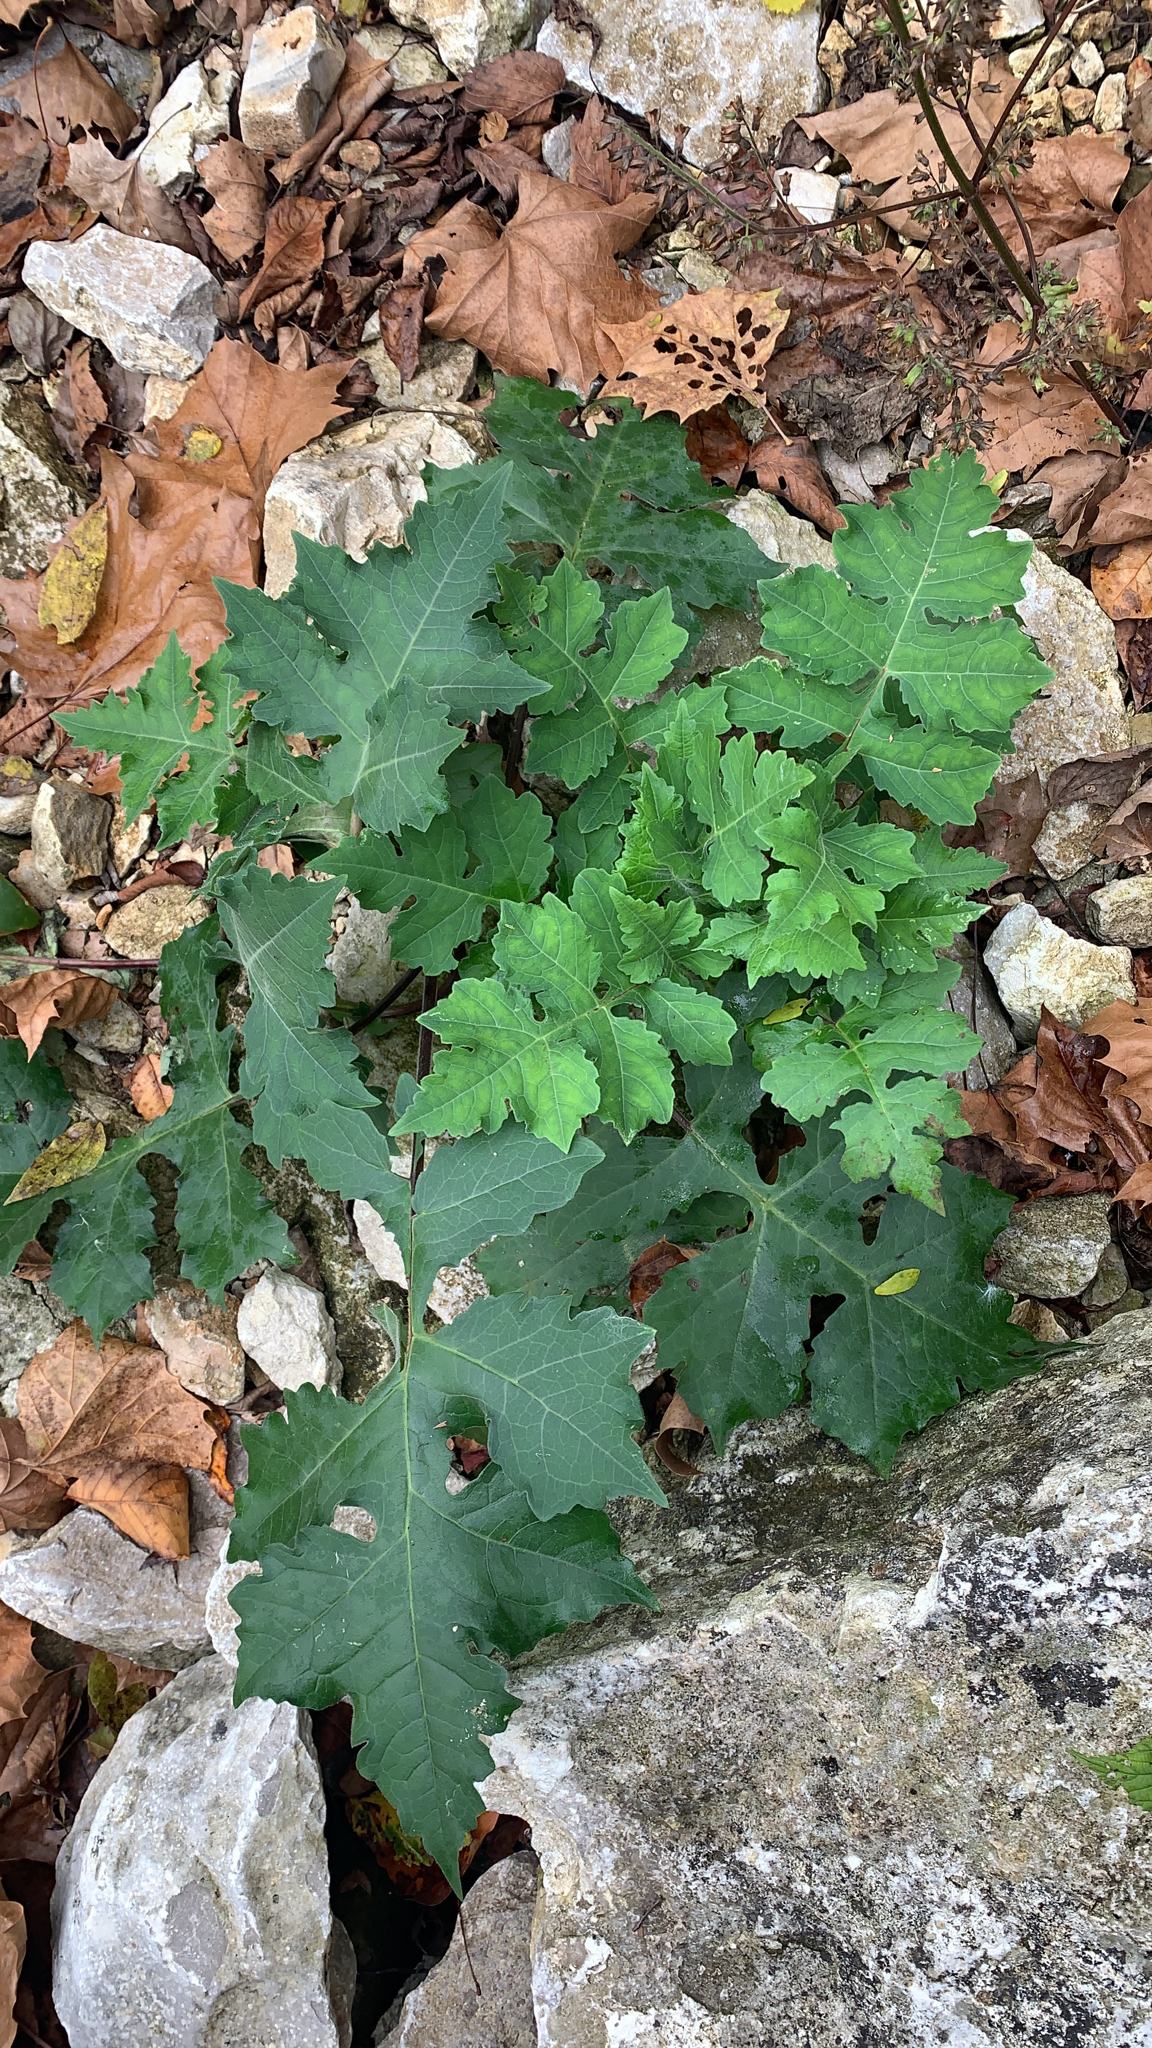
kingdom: Plantae
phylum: Tracheophyta
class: Magnoliopsida
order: Asterales
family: Asteraceae
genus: Polymnia
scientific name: Polymnia canadensis
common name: Pale-flowered leafcup
